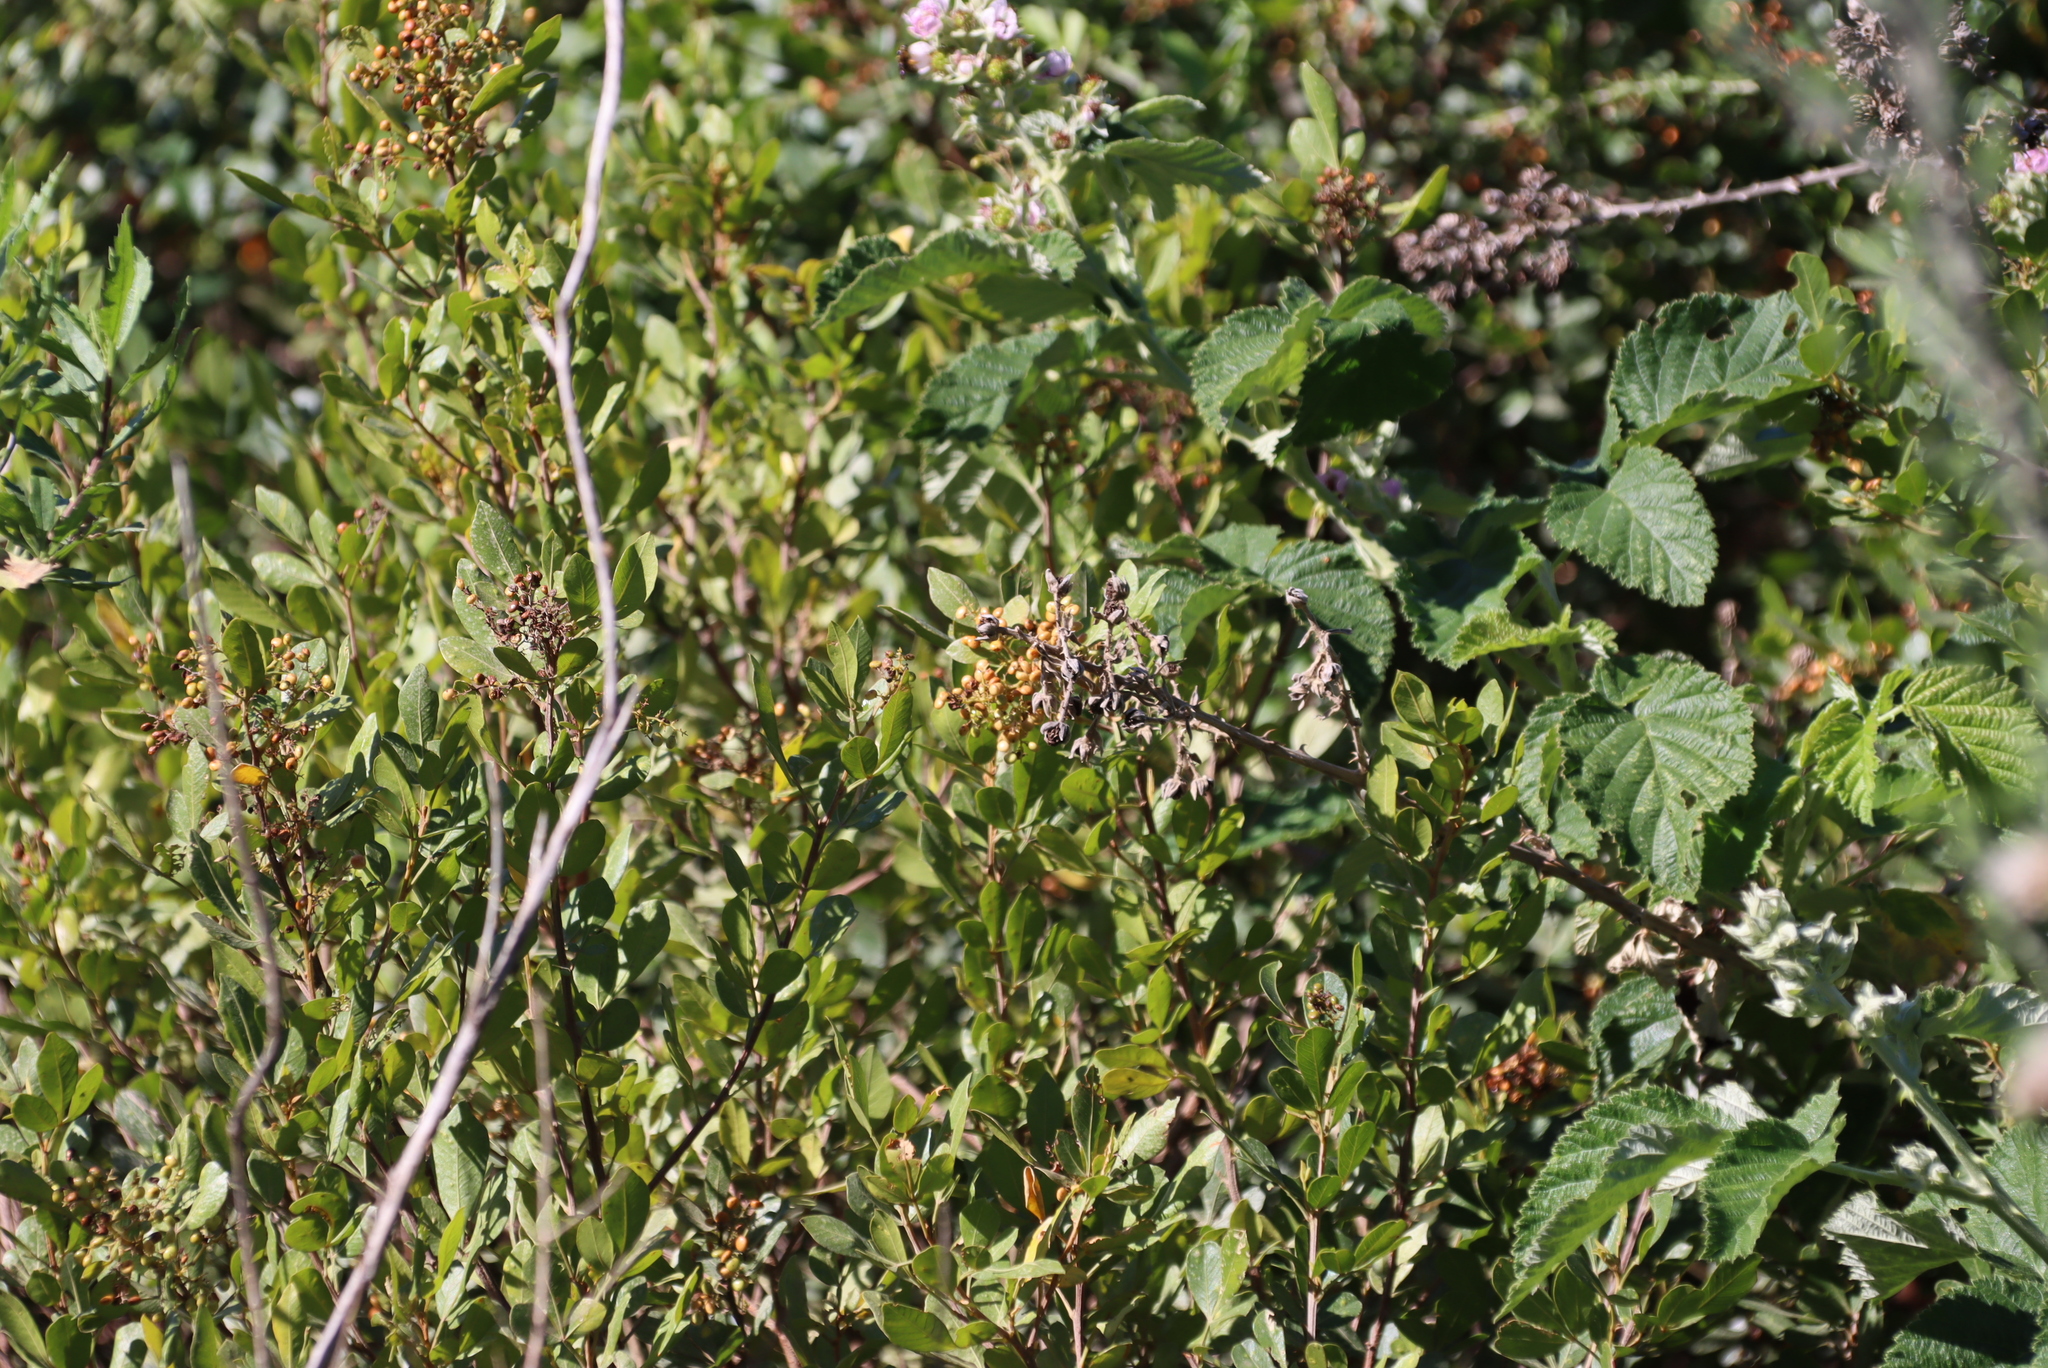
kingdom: Plantae
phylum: Tracheophyta
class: Magnoliopsida
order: Rosales
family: Rosaceae
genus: Rubus
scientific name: Rubus rigidus
